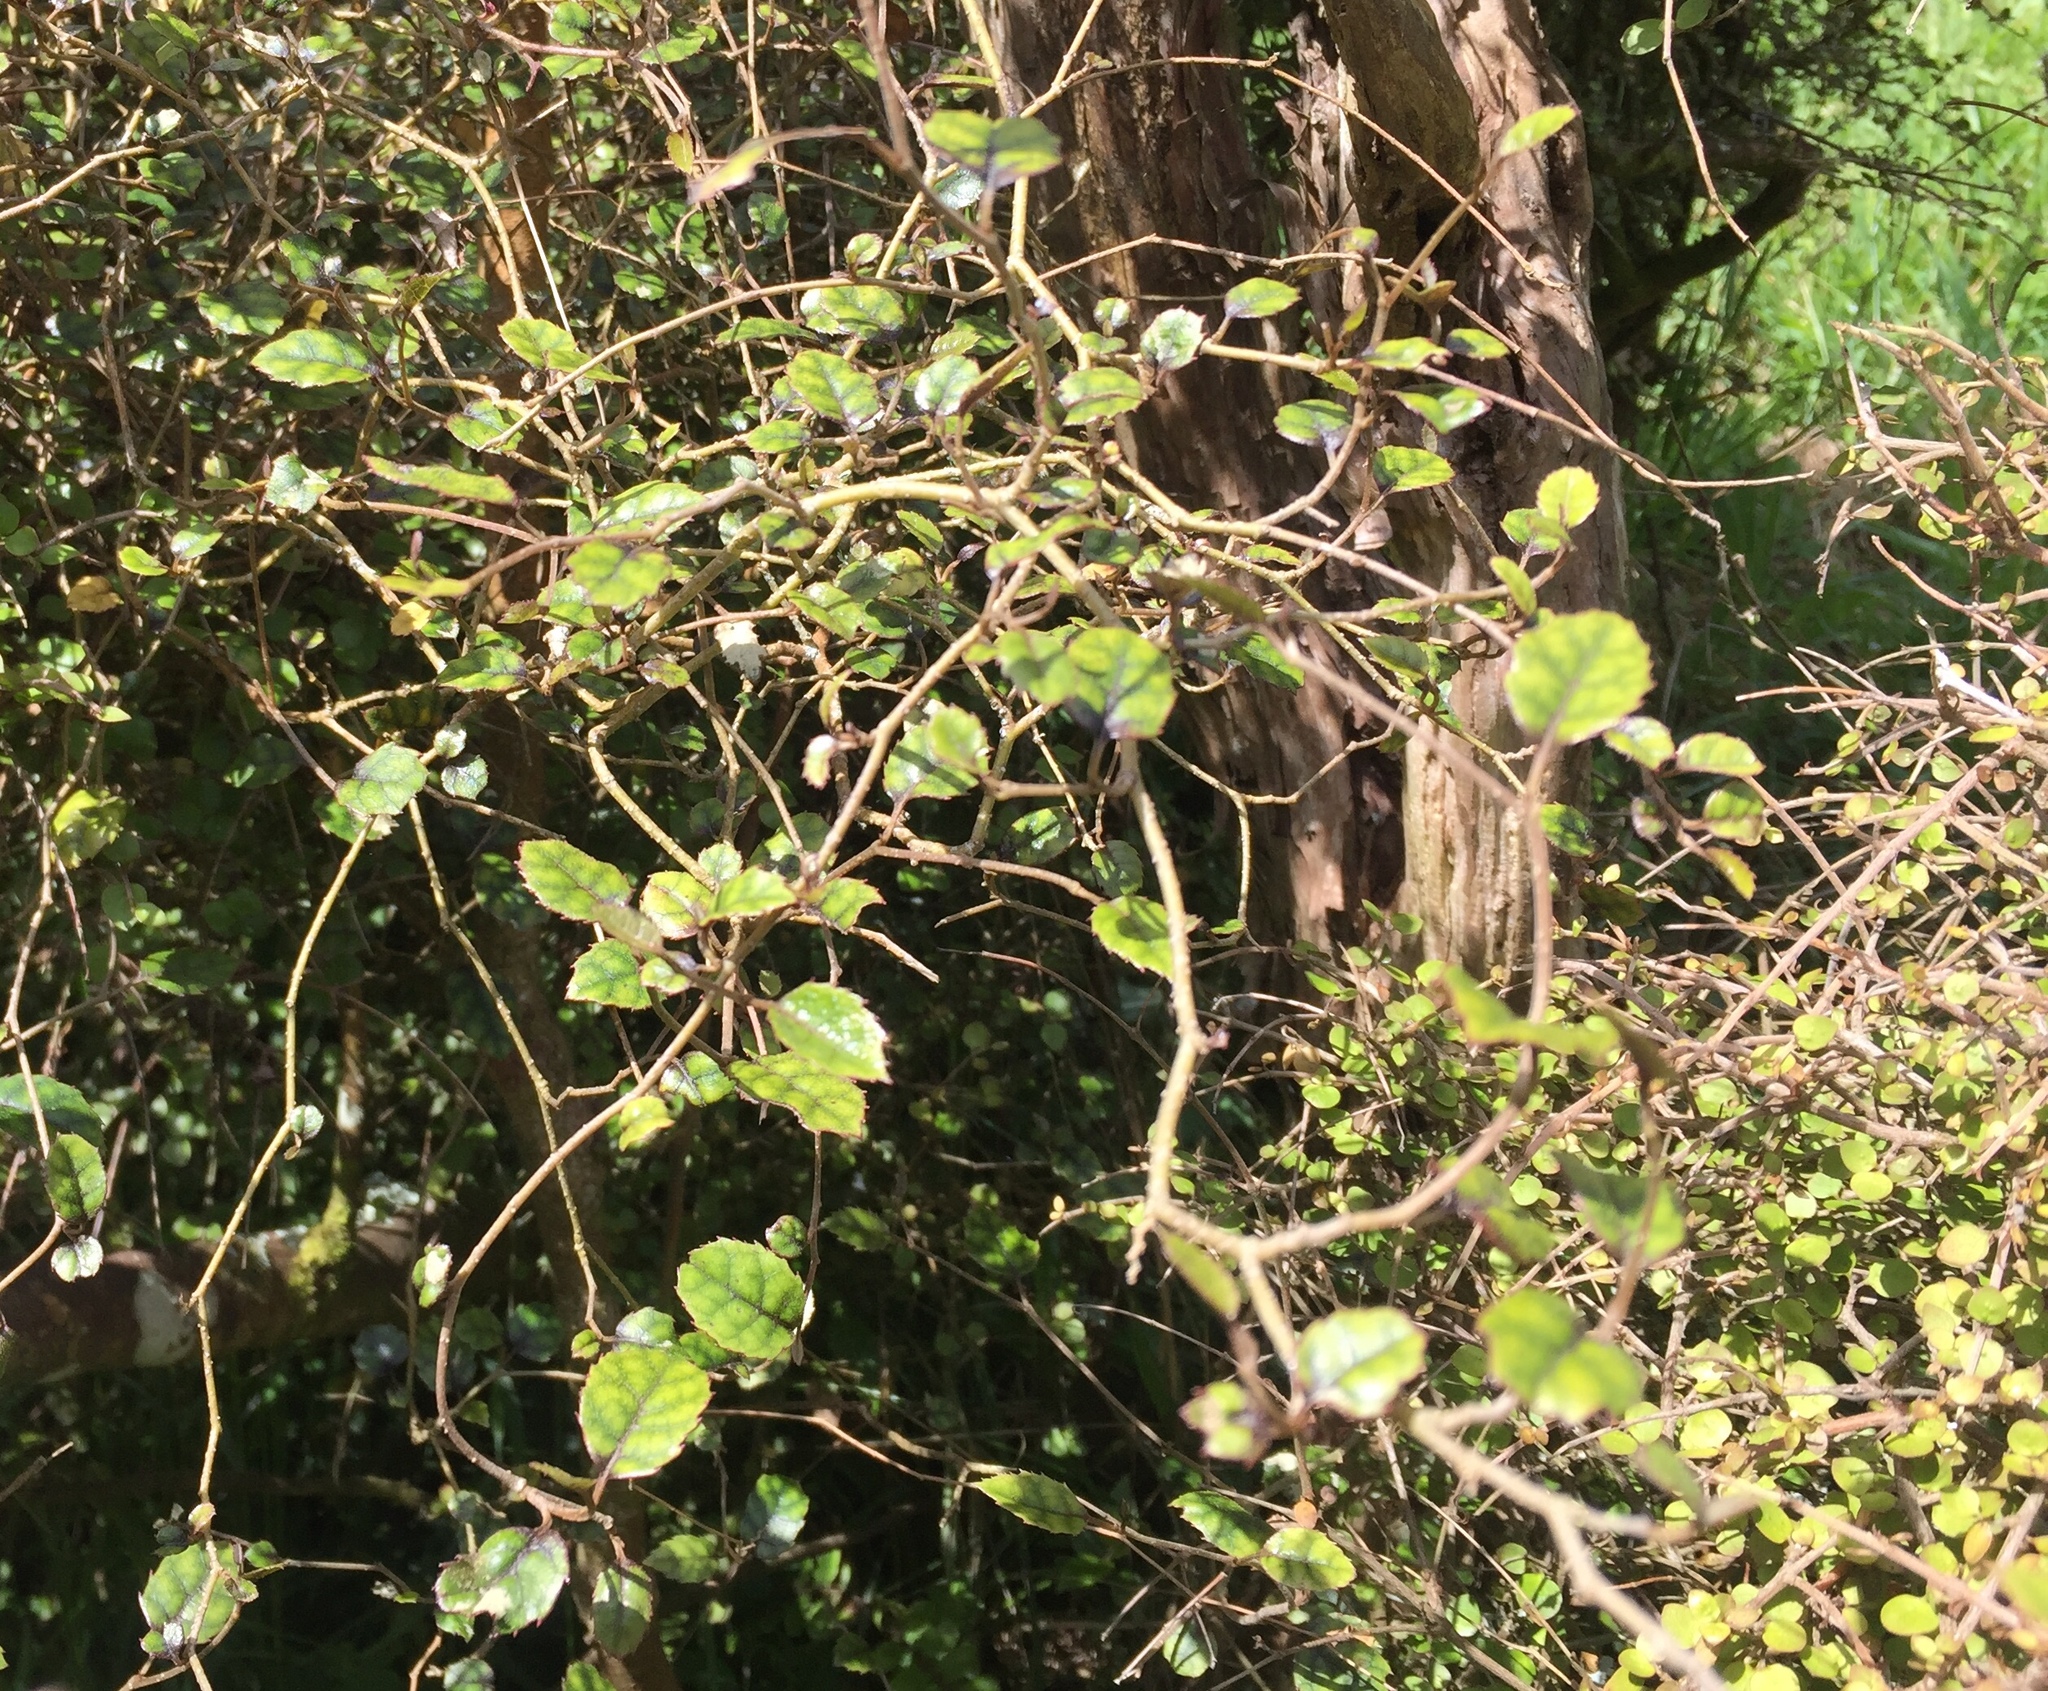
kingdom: Plantae
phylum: Tracheophyta
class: Magnoliopsida
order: Asterales
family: Rousseaceae
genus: Carpodetus
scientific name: Carpodetus serratus
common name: White mapau
